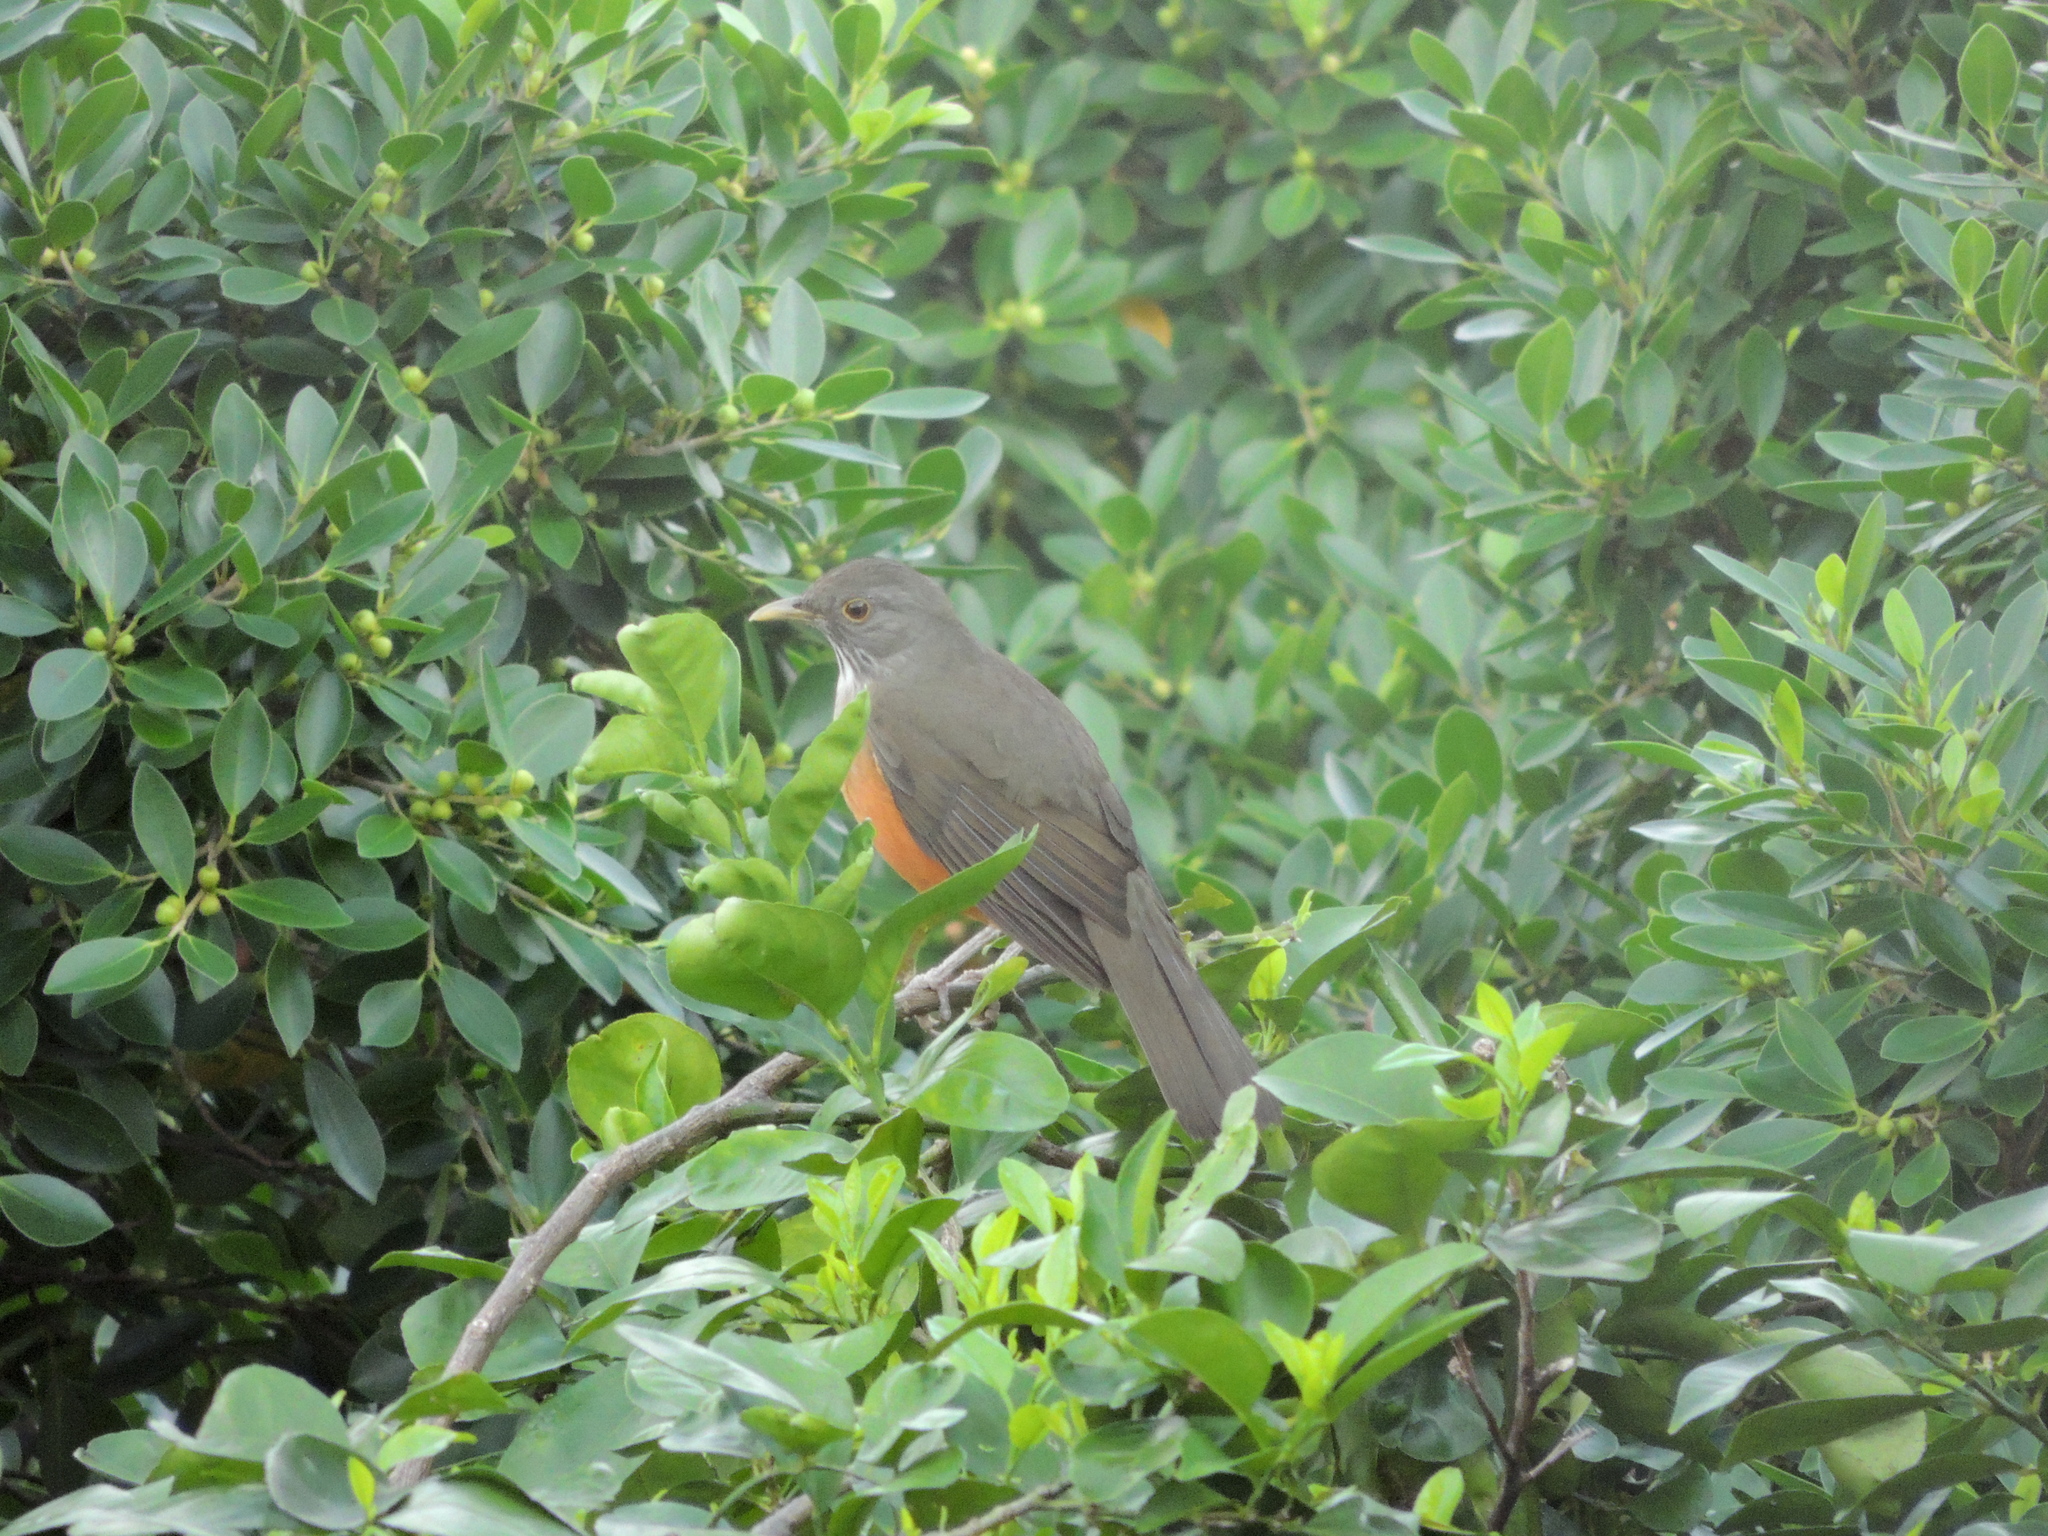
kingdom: Animalia
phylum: Chordata
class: Aves
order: Passeriformes
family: Turdidae
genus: Turdus
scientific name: Turdus rufiventris
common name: Rufous-bellied thrush
